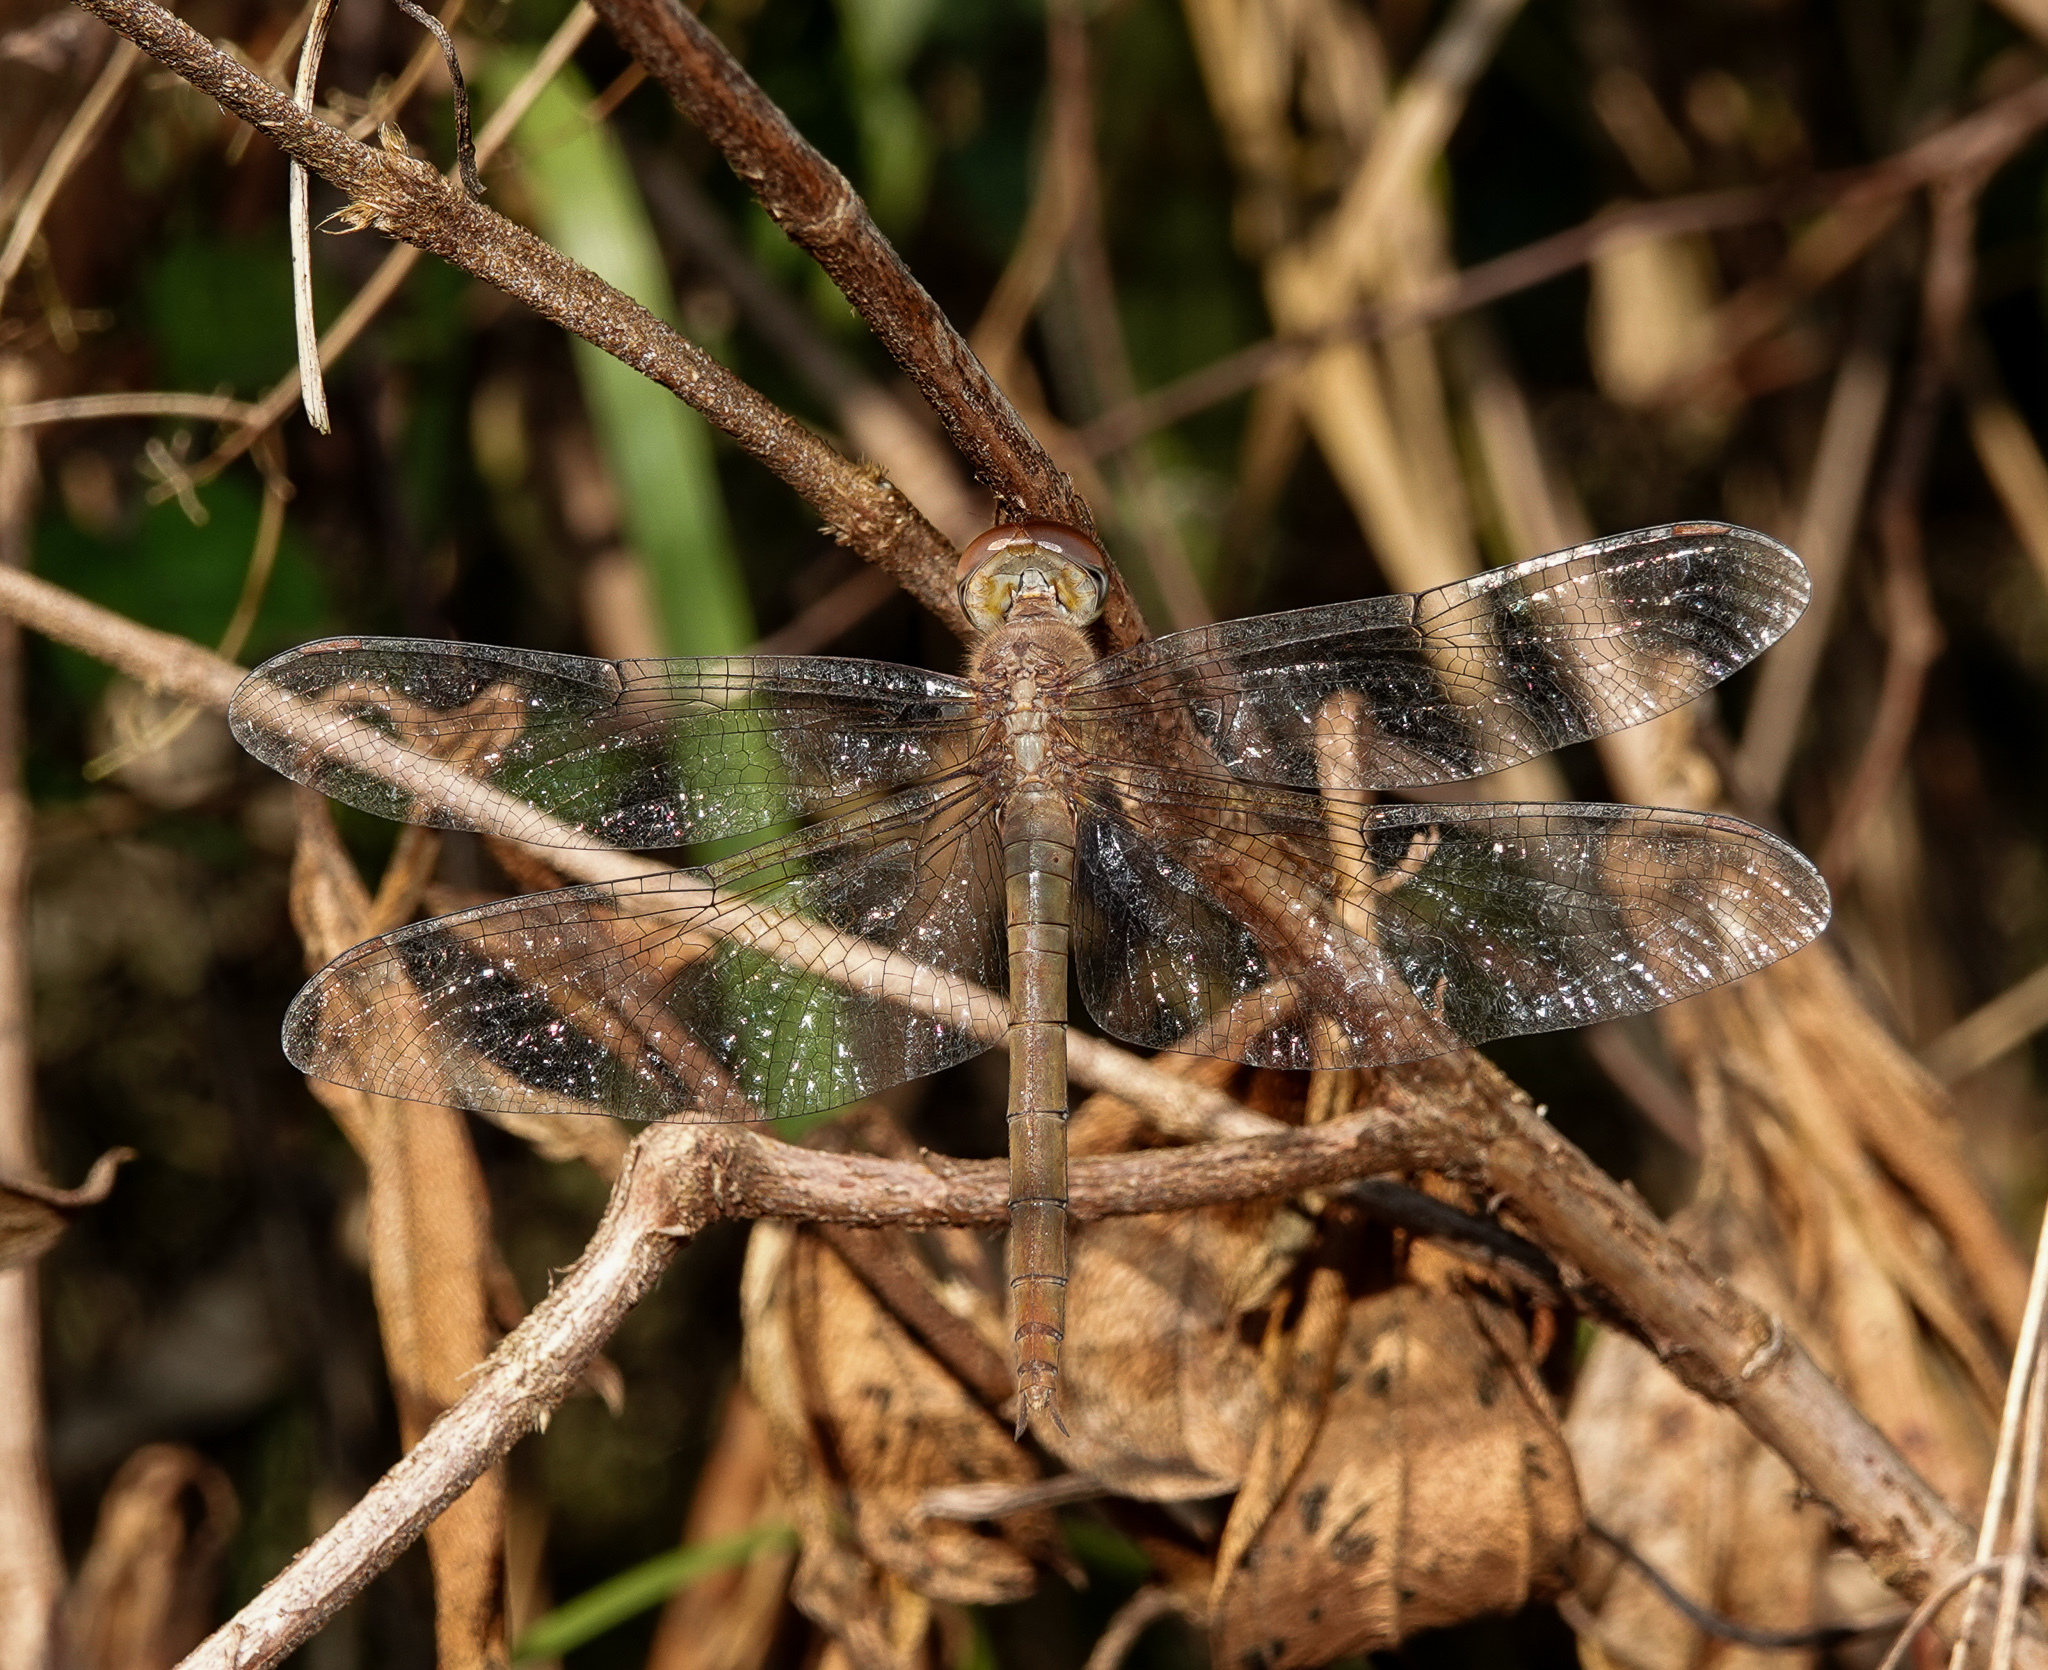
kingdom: Animalia
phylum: Arthropoda
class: Insecta
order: Odonata
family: Libellulidae
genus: Tholymis
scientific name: Tholymis tillarga
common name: Coral-tailed cloud wing
